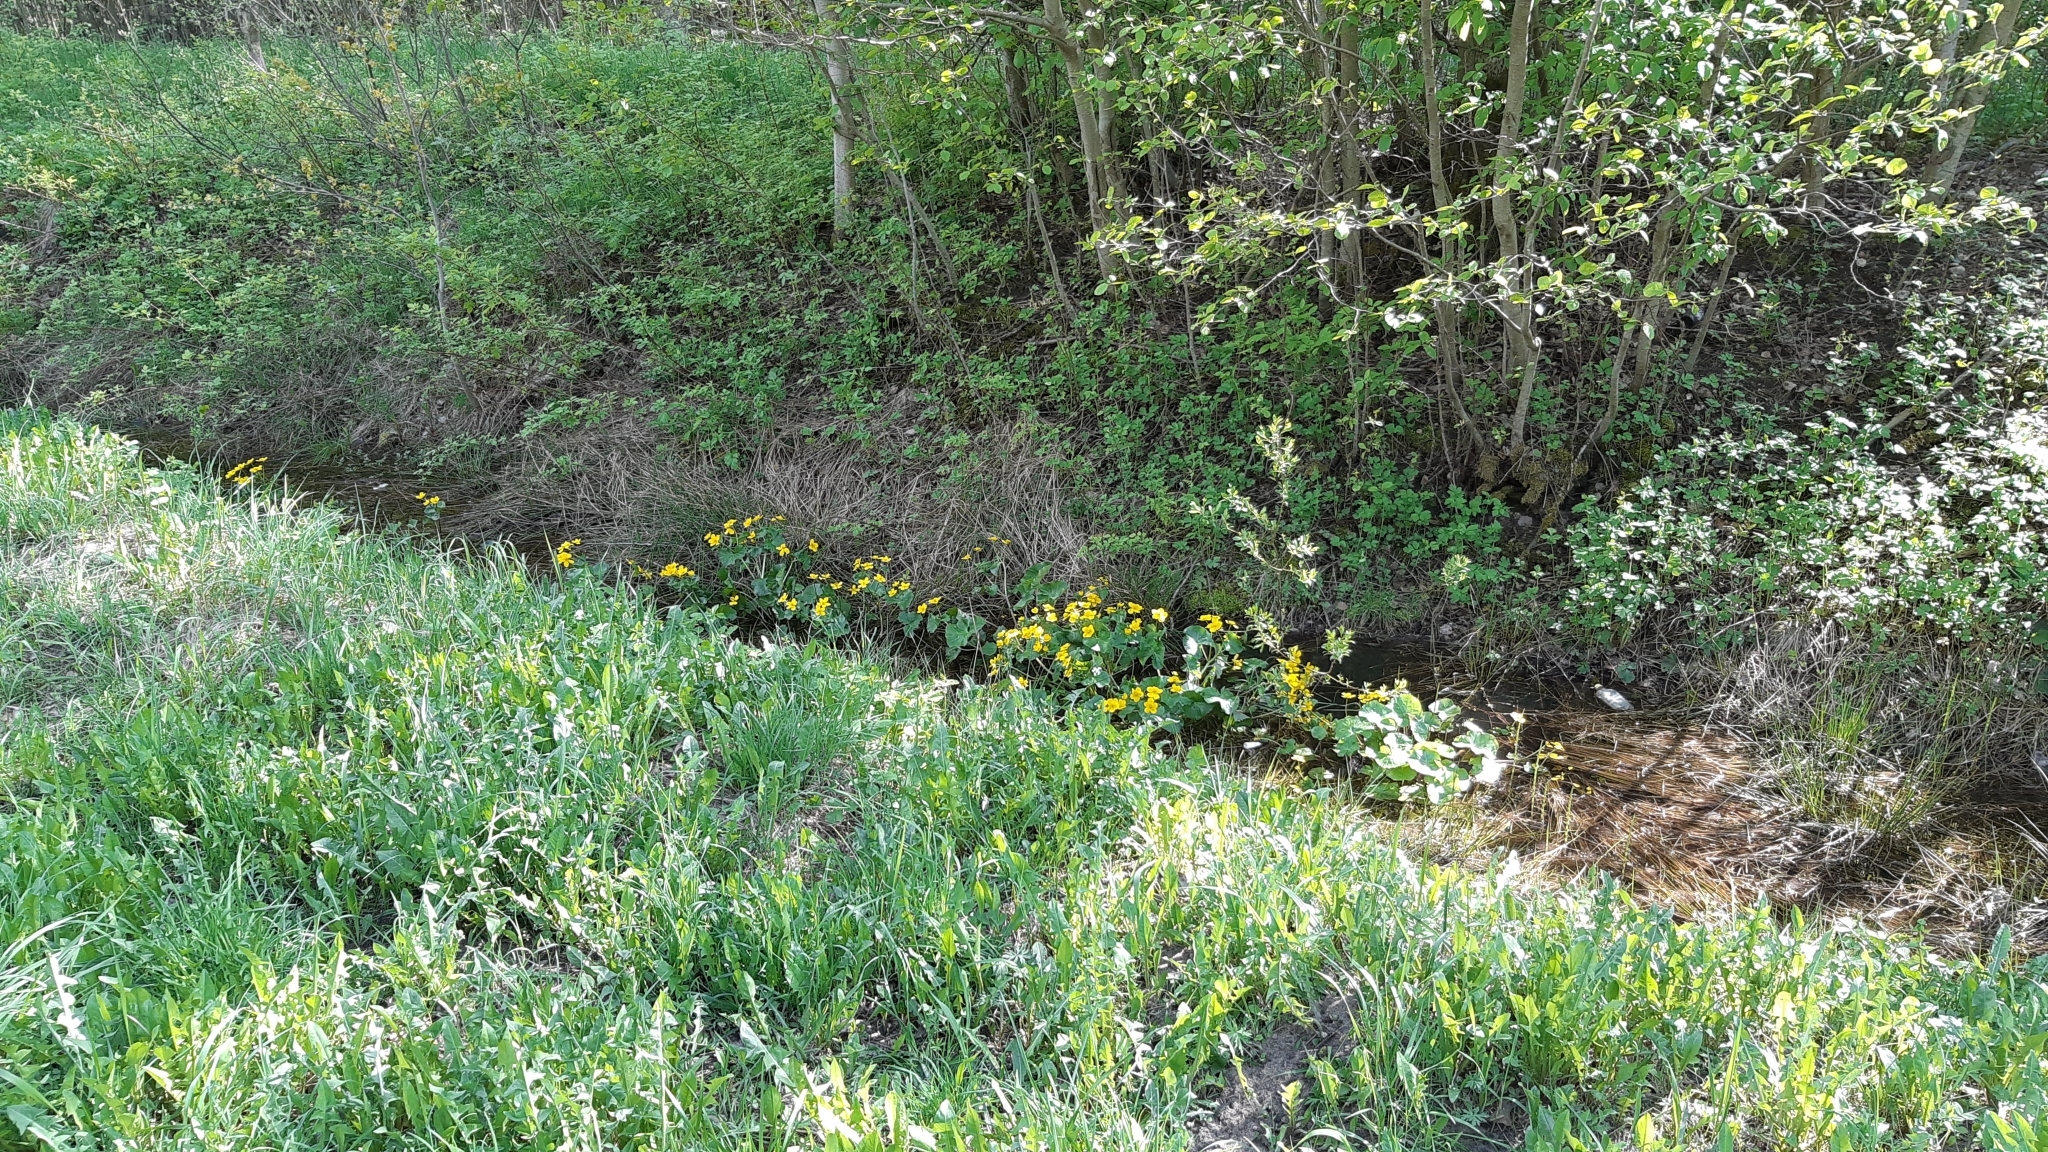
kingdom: Plantae
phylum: Tracheophyta
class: Magnoliopsida
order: Ranunculales
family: Ranunculaceae
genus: Caltha
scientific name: Caltha palustris
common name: Marsh marigold
